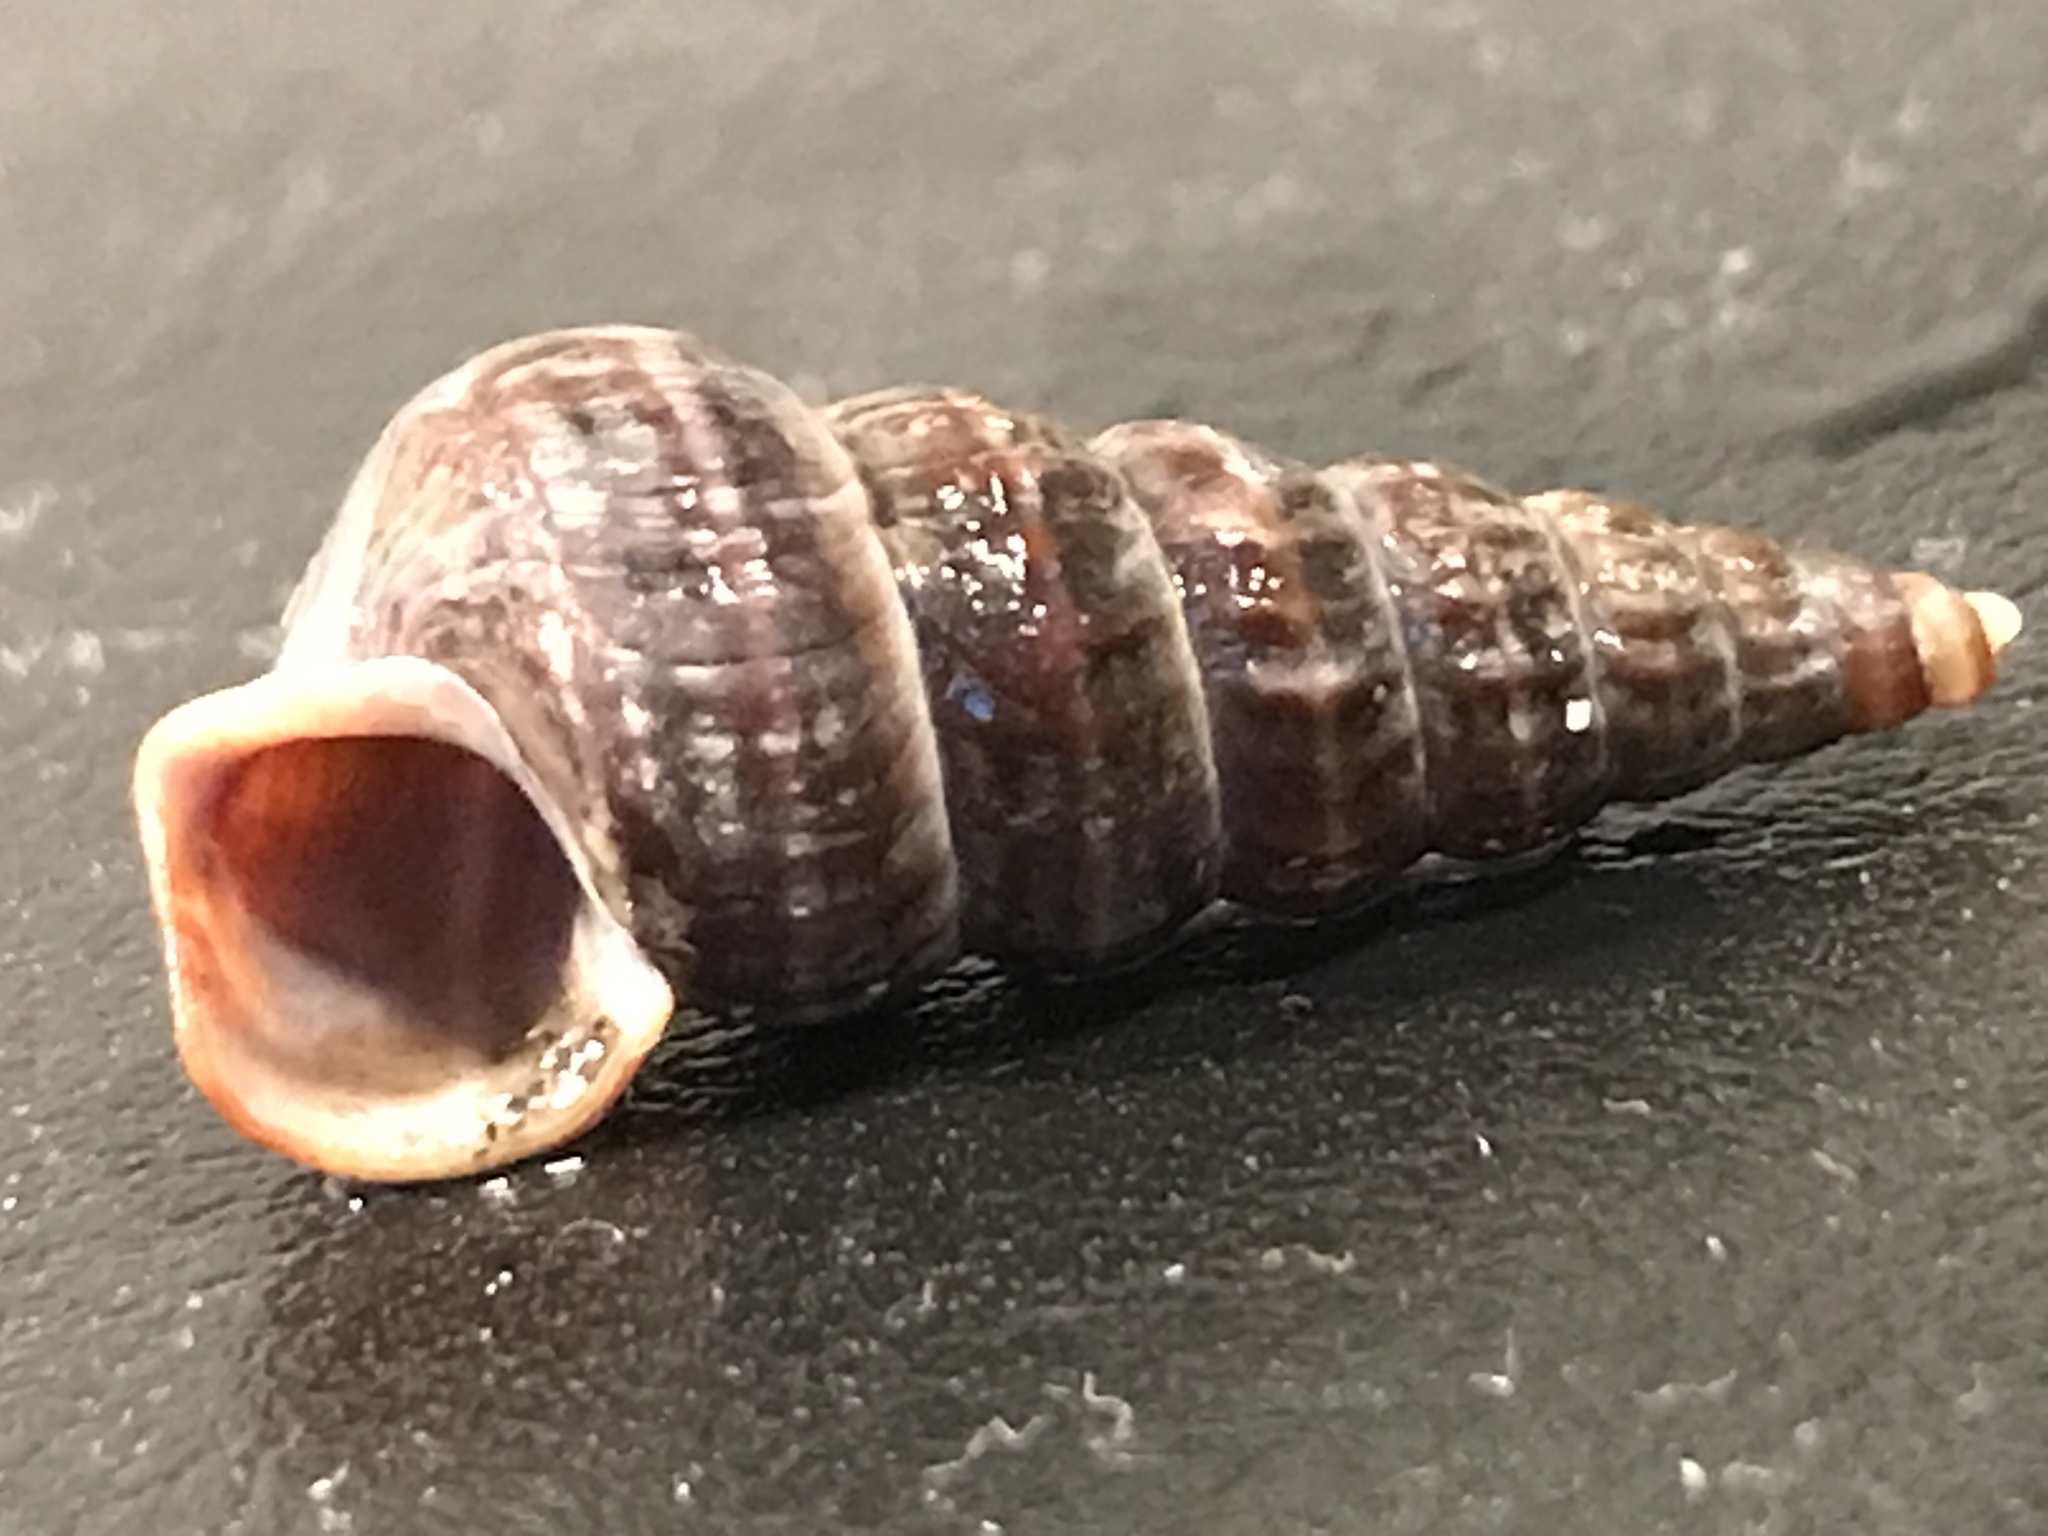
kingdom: Animalia
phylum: Mollusca
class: Gastropoda
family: Potamididae
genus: Cerithideopsis
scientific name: Cerithideopsis californica
